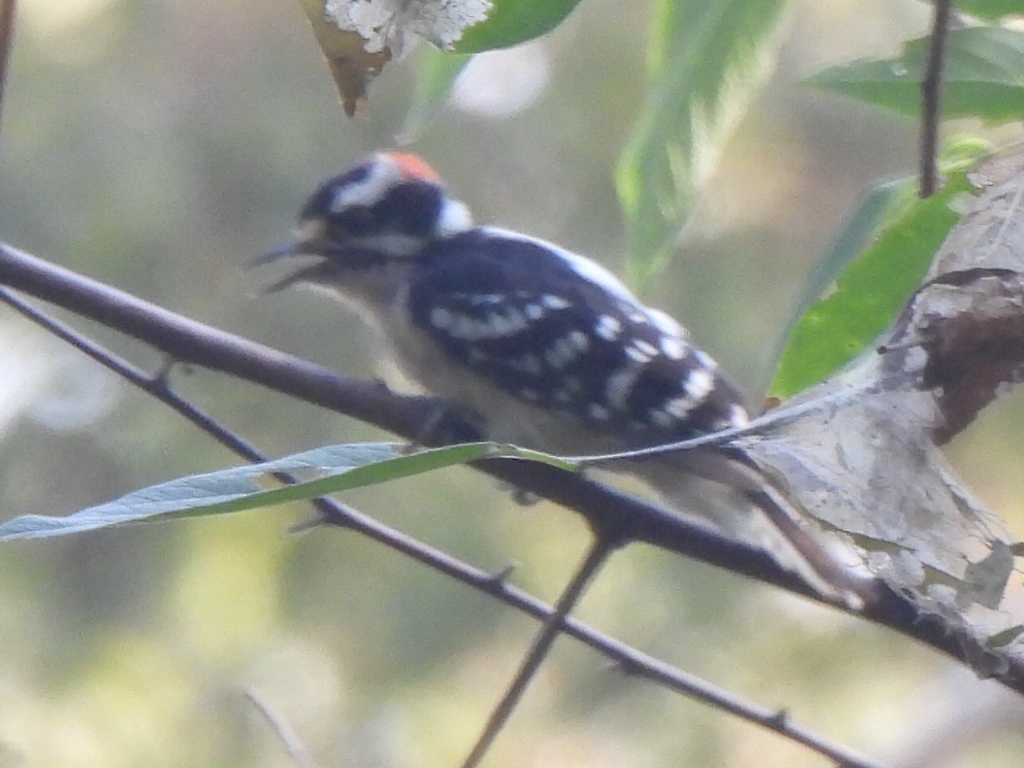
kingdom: Animalia
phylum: Chordata
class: Aves
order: Piciformes
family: Picidae
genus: Dryobates
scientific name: Dryobates pubescens
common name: Downy woodpecker
